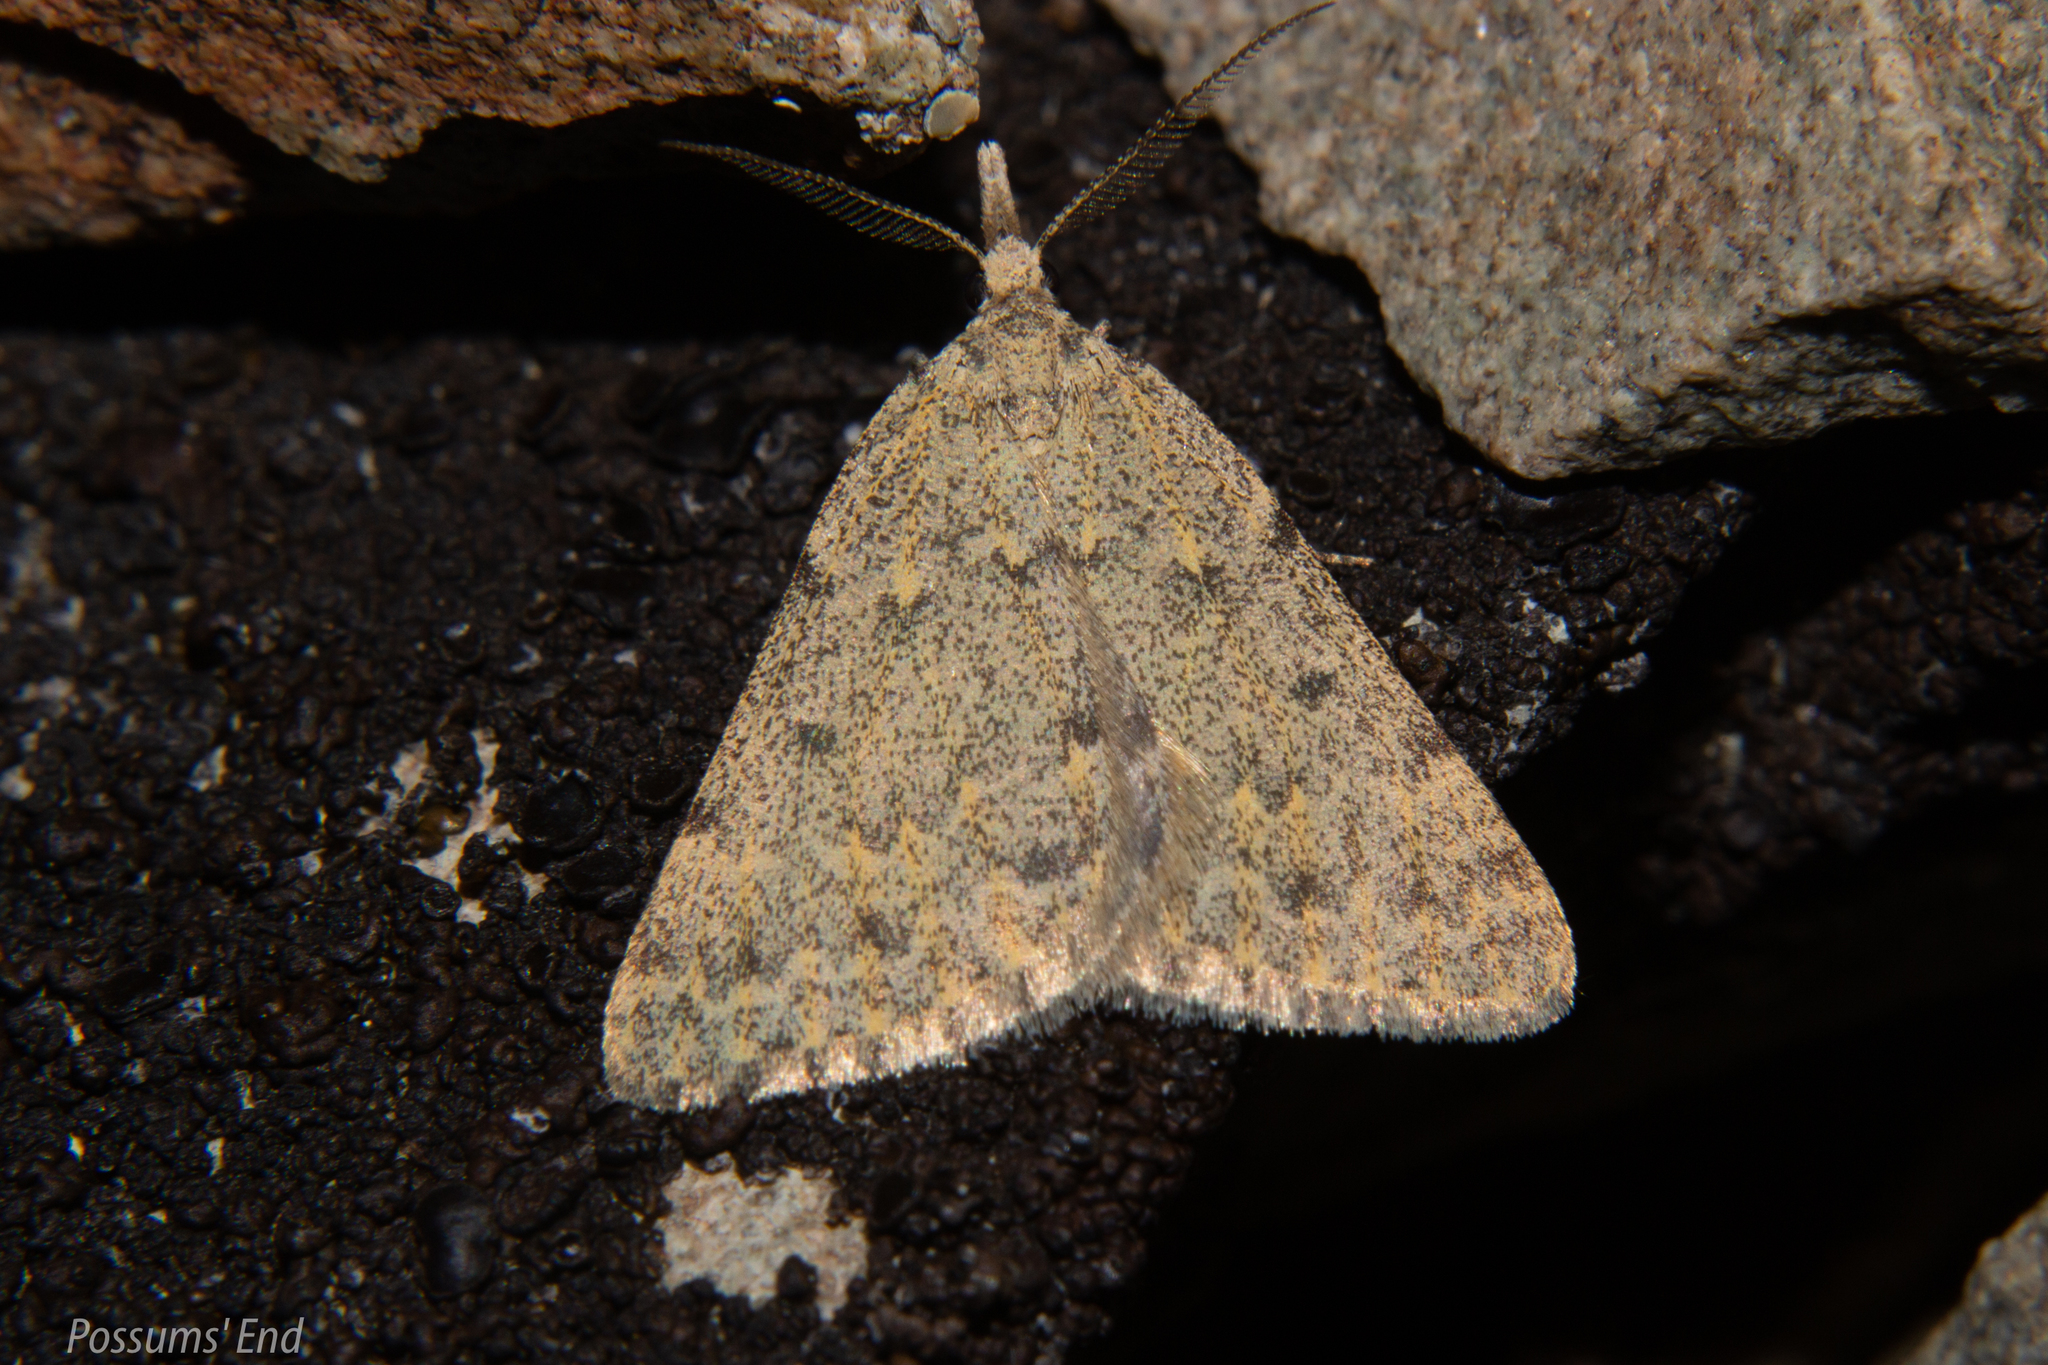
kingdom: Animalia
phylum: Arthropoda
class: Insecta
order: Lepidoptera
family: Geometridae
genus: Dichromodes
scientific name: Dichromodes sphaeriata
